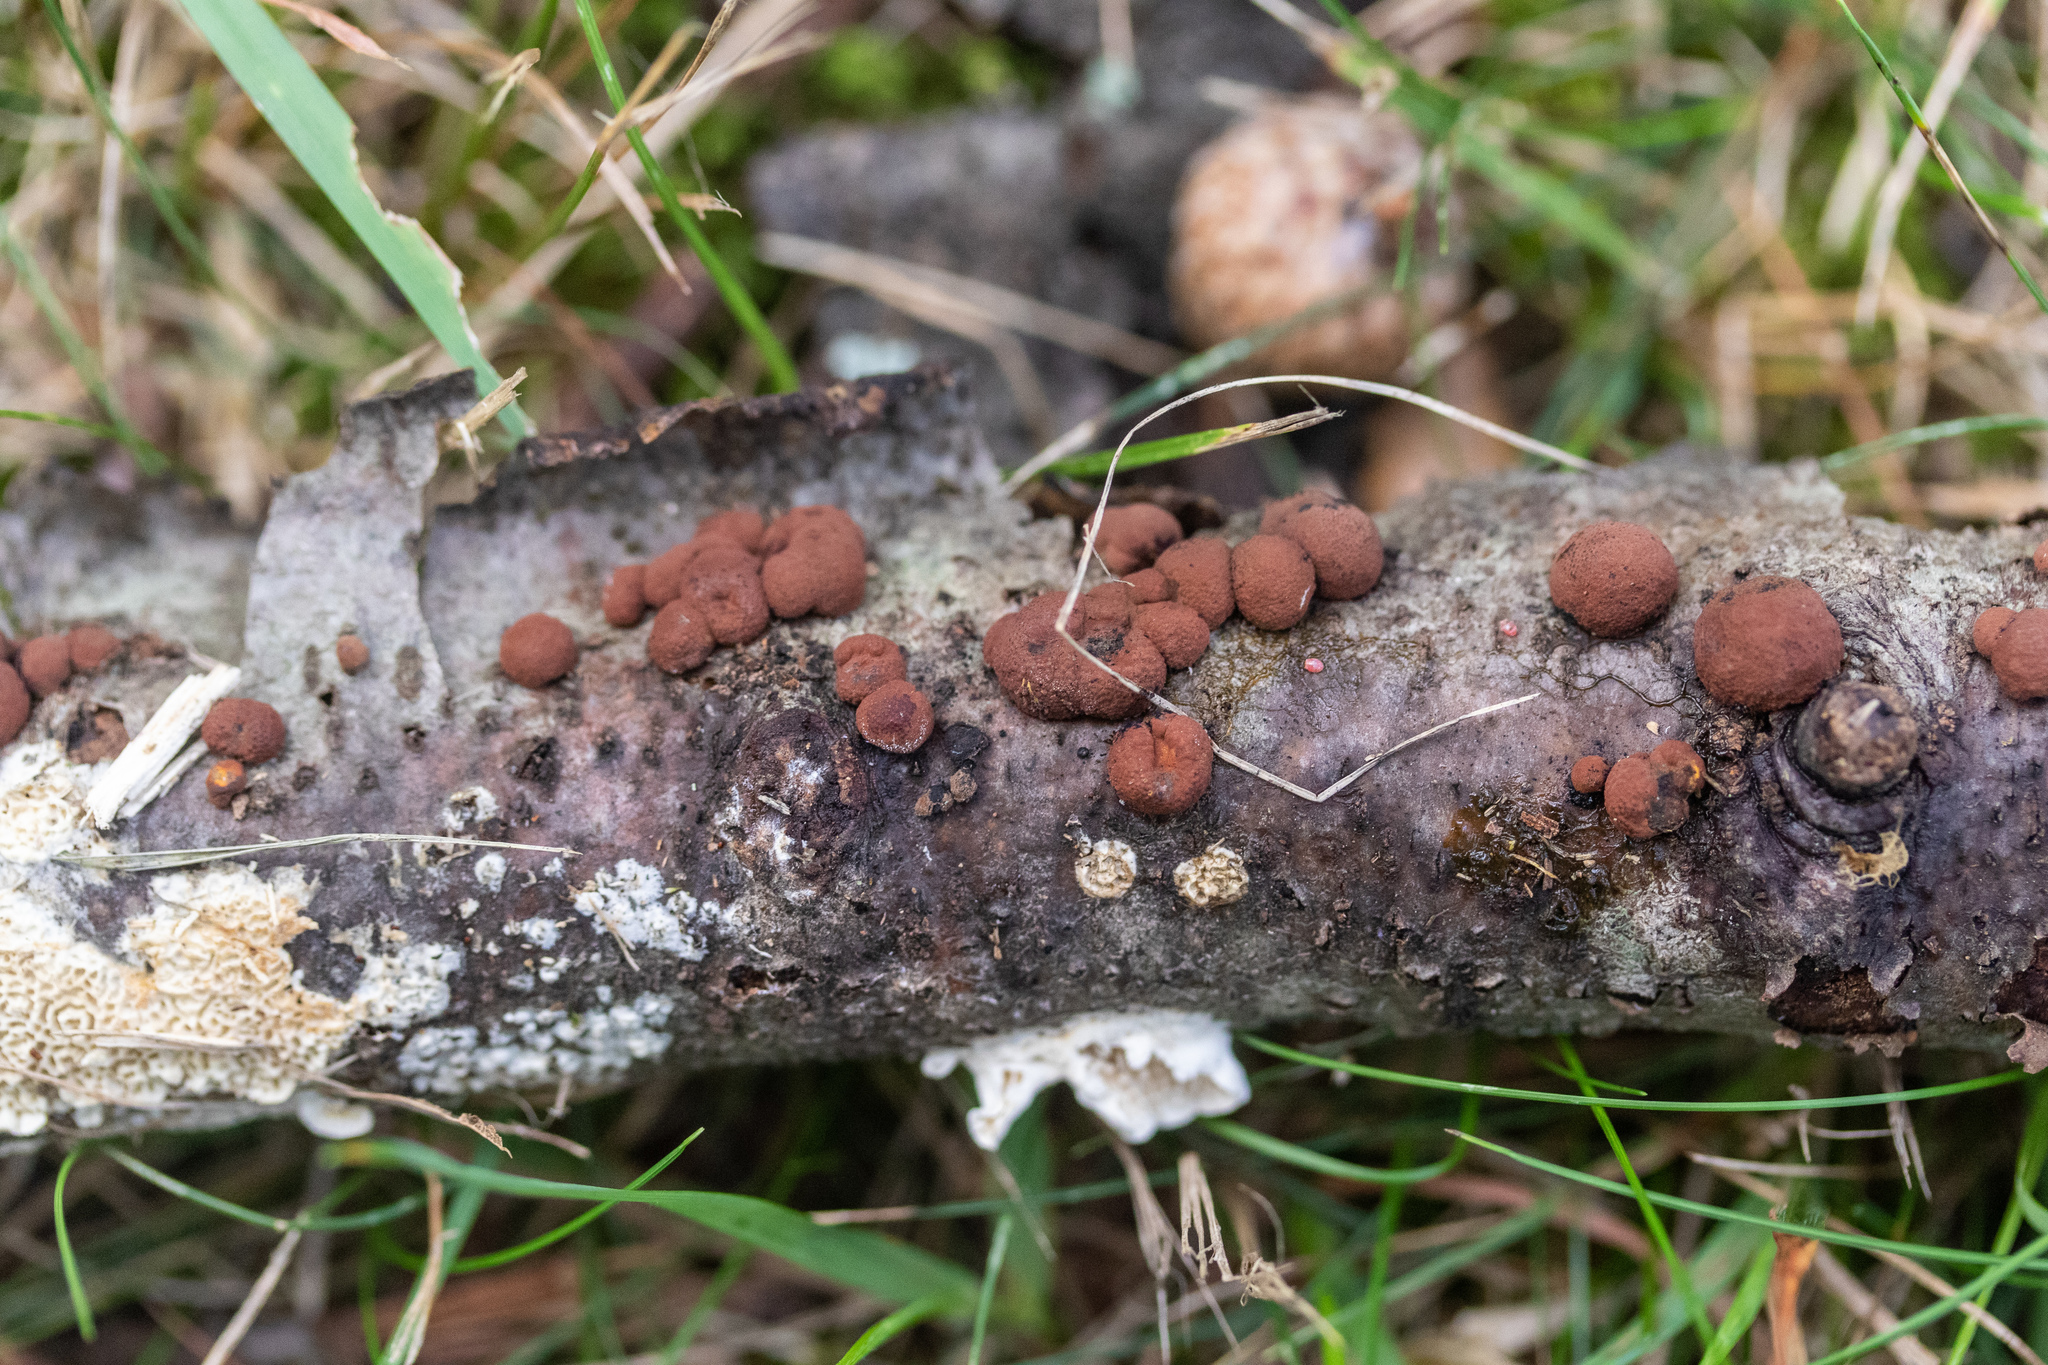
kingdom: Fungi
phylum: Ascomycota
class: Sordariomycetes
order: Xylariales
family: Hypoxylaceae
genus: Hypoxylon
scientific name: Hypoxylon fragiforme
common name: Beech woodwart
